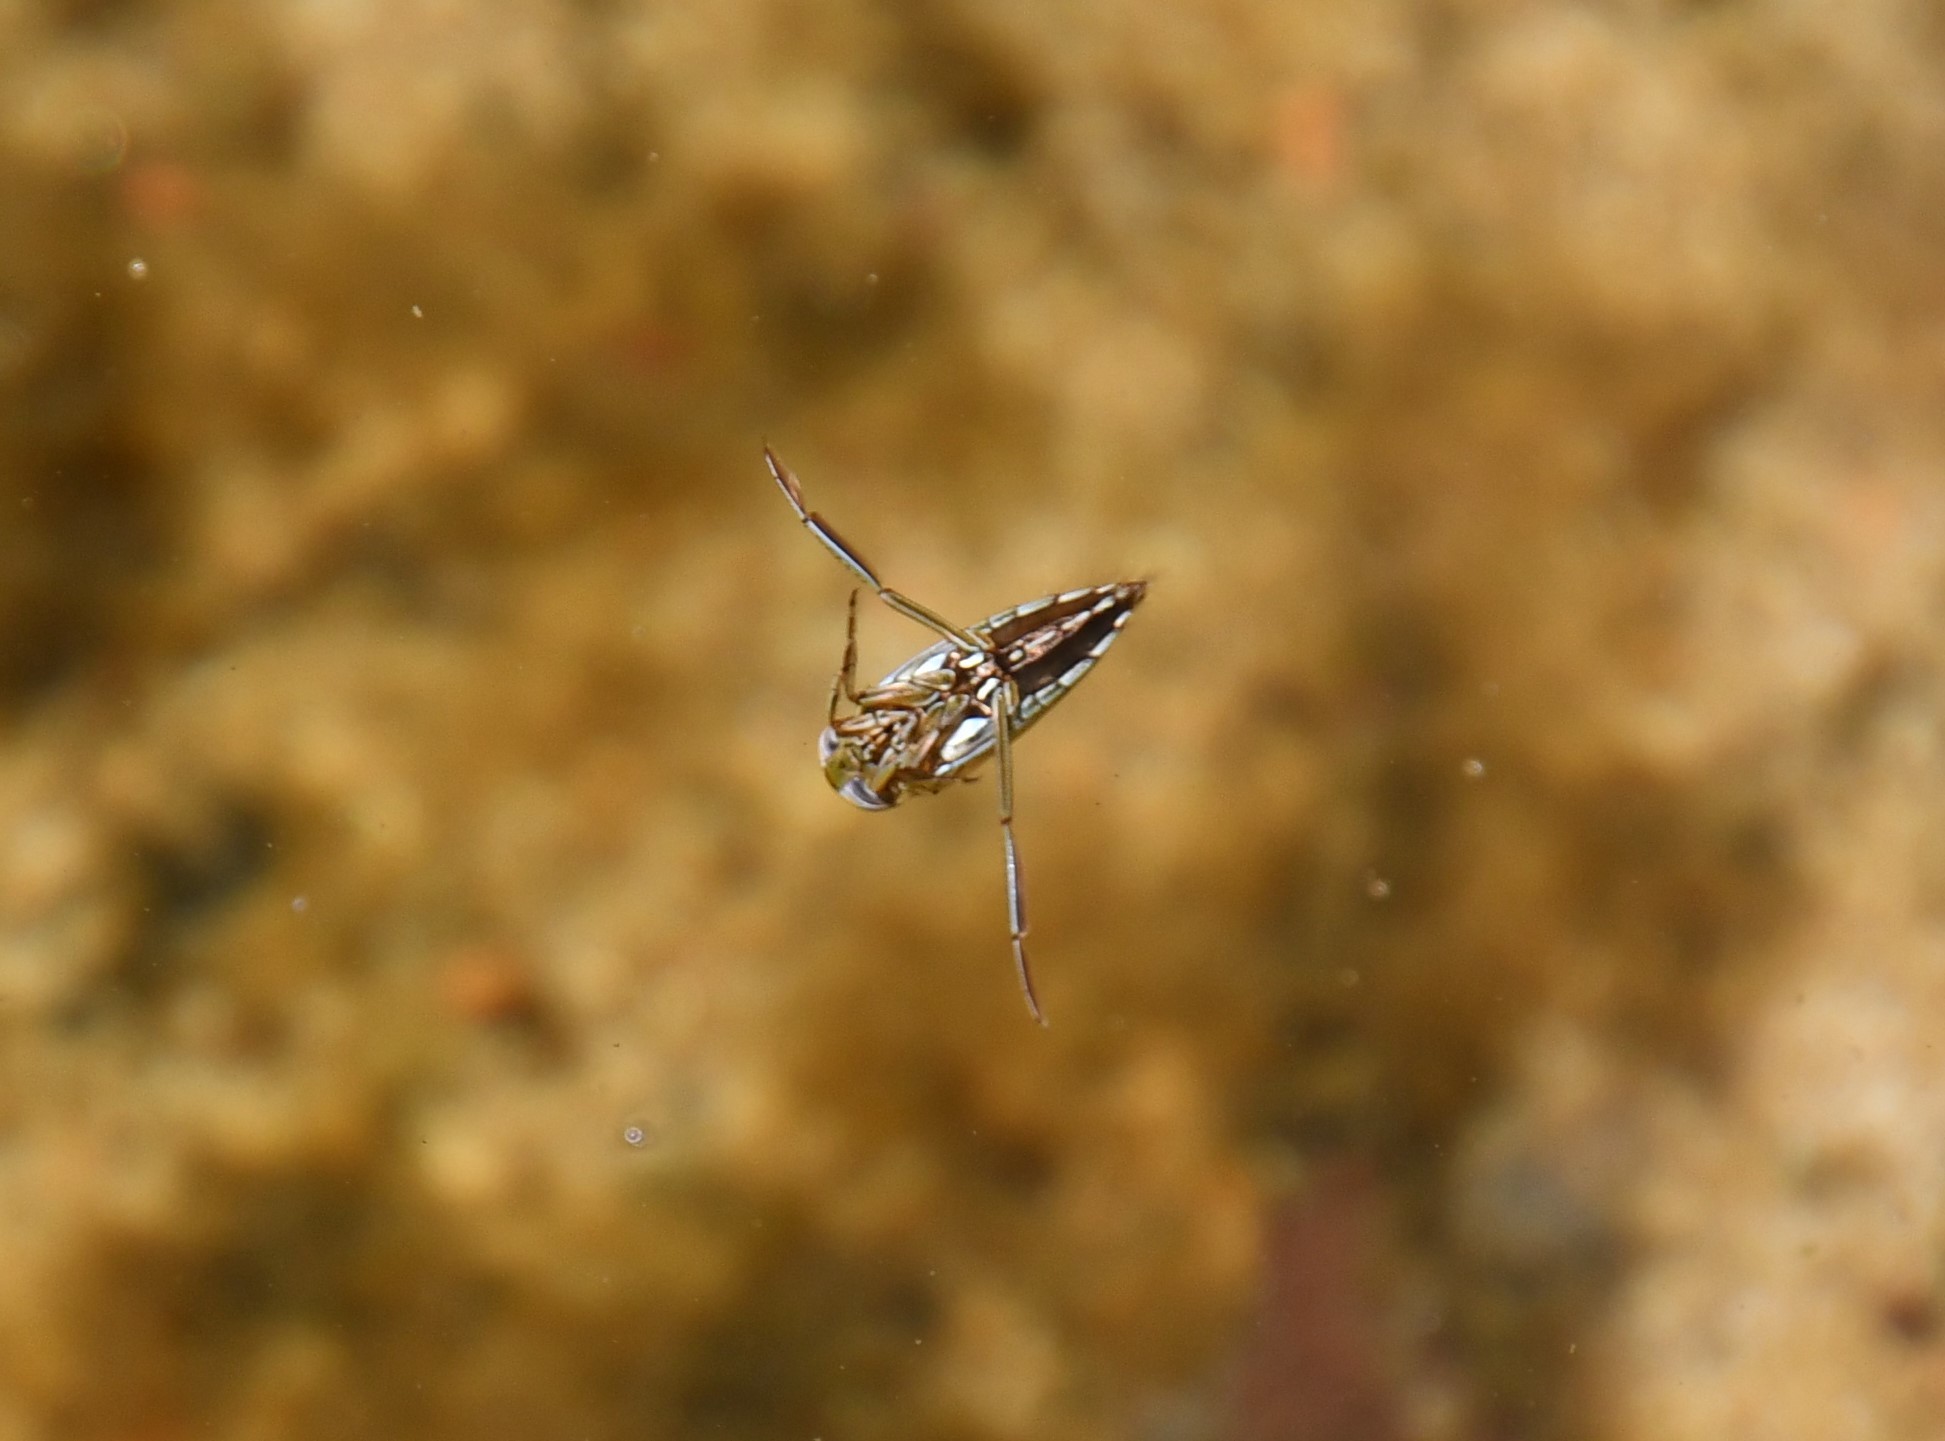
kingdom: Animalia
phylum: Arthropoda
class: Insecta
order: Hemiptera
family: Notonectidae
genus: Enithares
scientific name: Enithares
